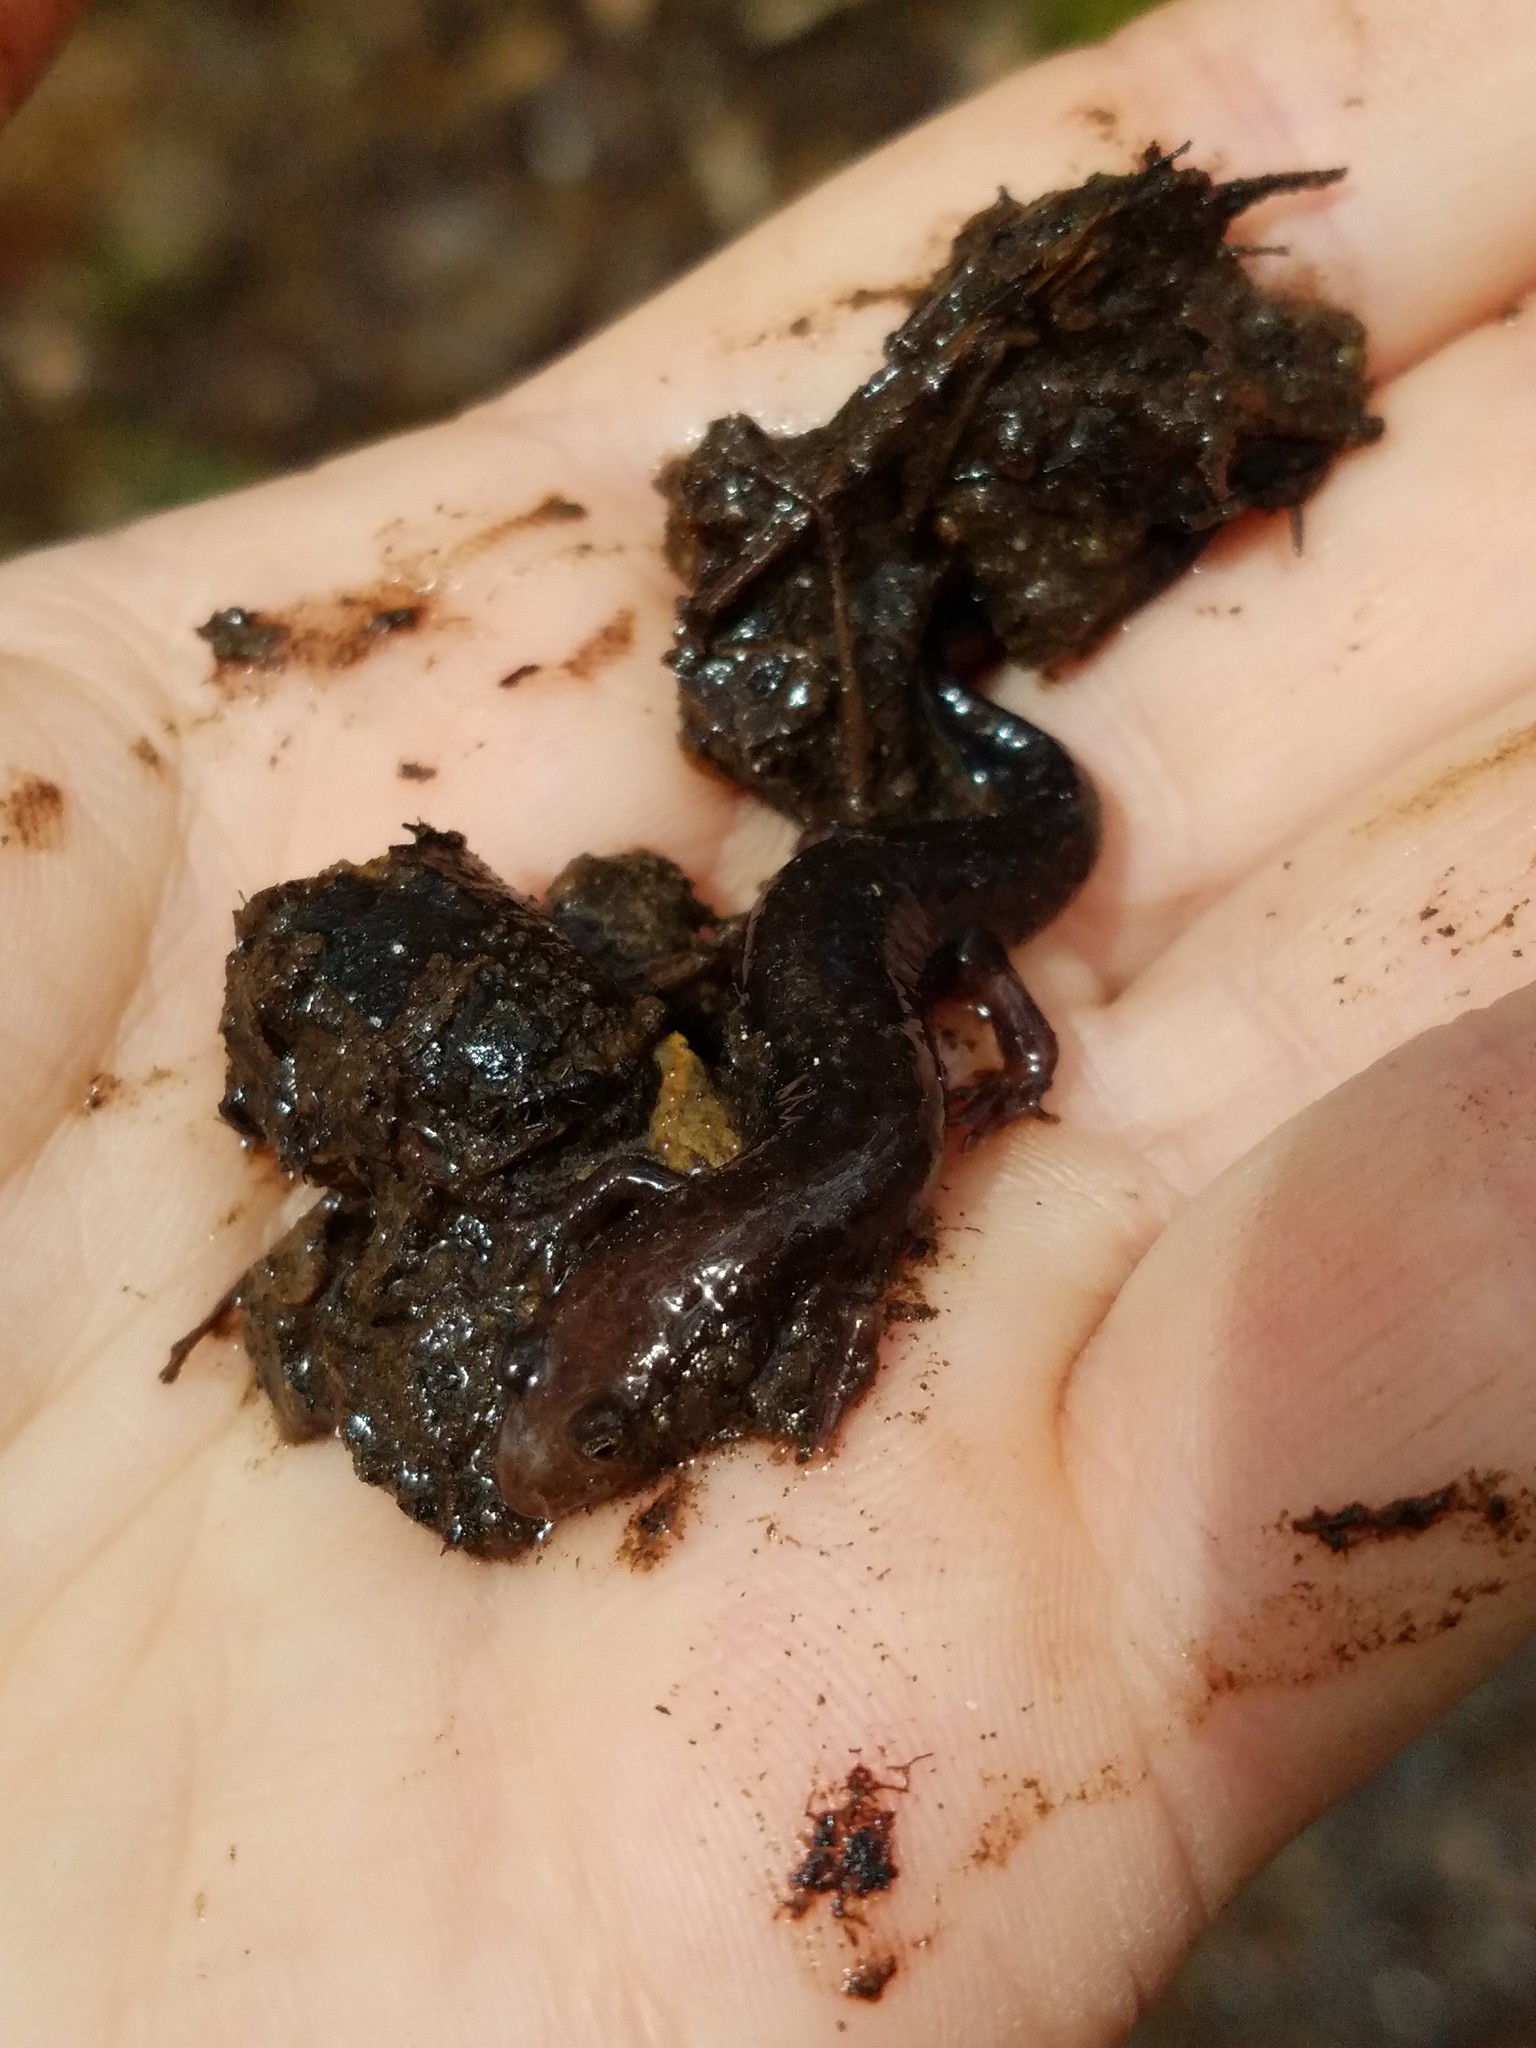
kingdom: Animalia
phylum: Chordata
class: Amphibia
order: Caudata
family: Plethodontidae
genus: Desmognathus
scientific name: Desmognathus ochrophaeus
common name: Allegheny mountain dusky salamander
